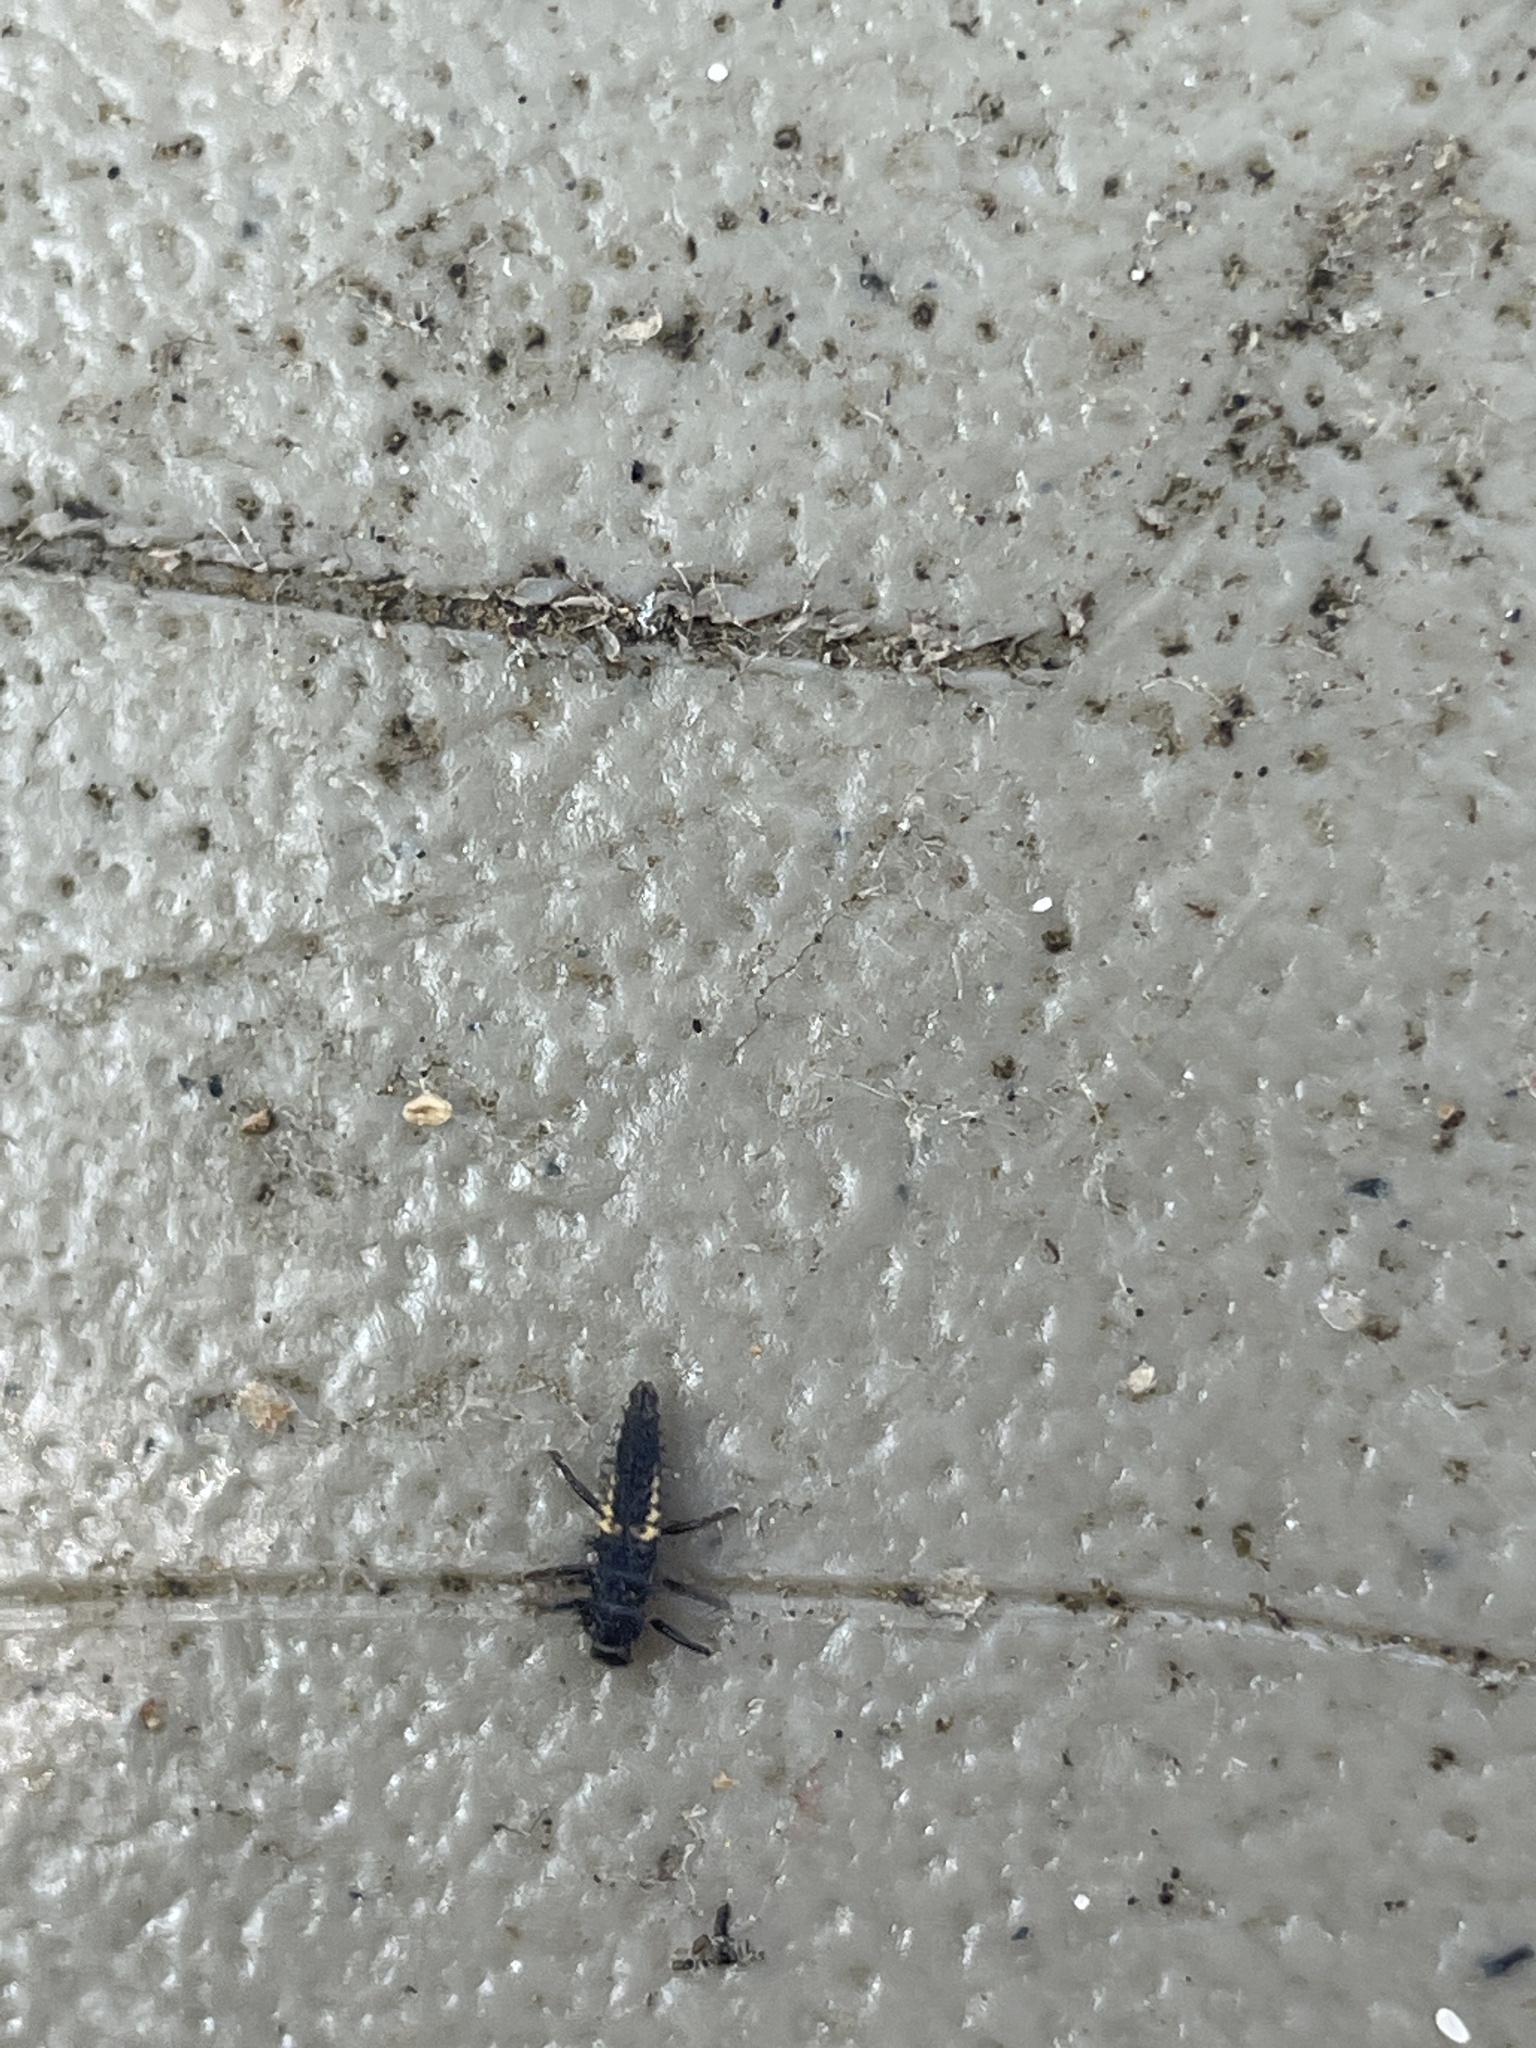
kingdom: Animalia
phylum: Arthropoda
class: Insecta
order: Coleoptera
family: Coccinellidae
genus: Harmonia
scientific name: Harmonia axyridis
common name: Harlequin ladybird
